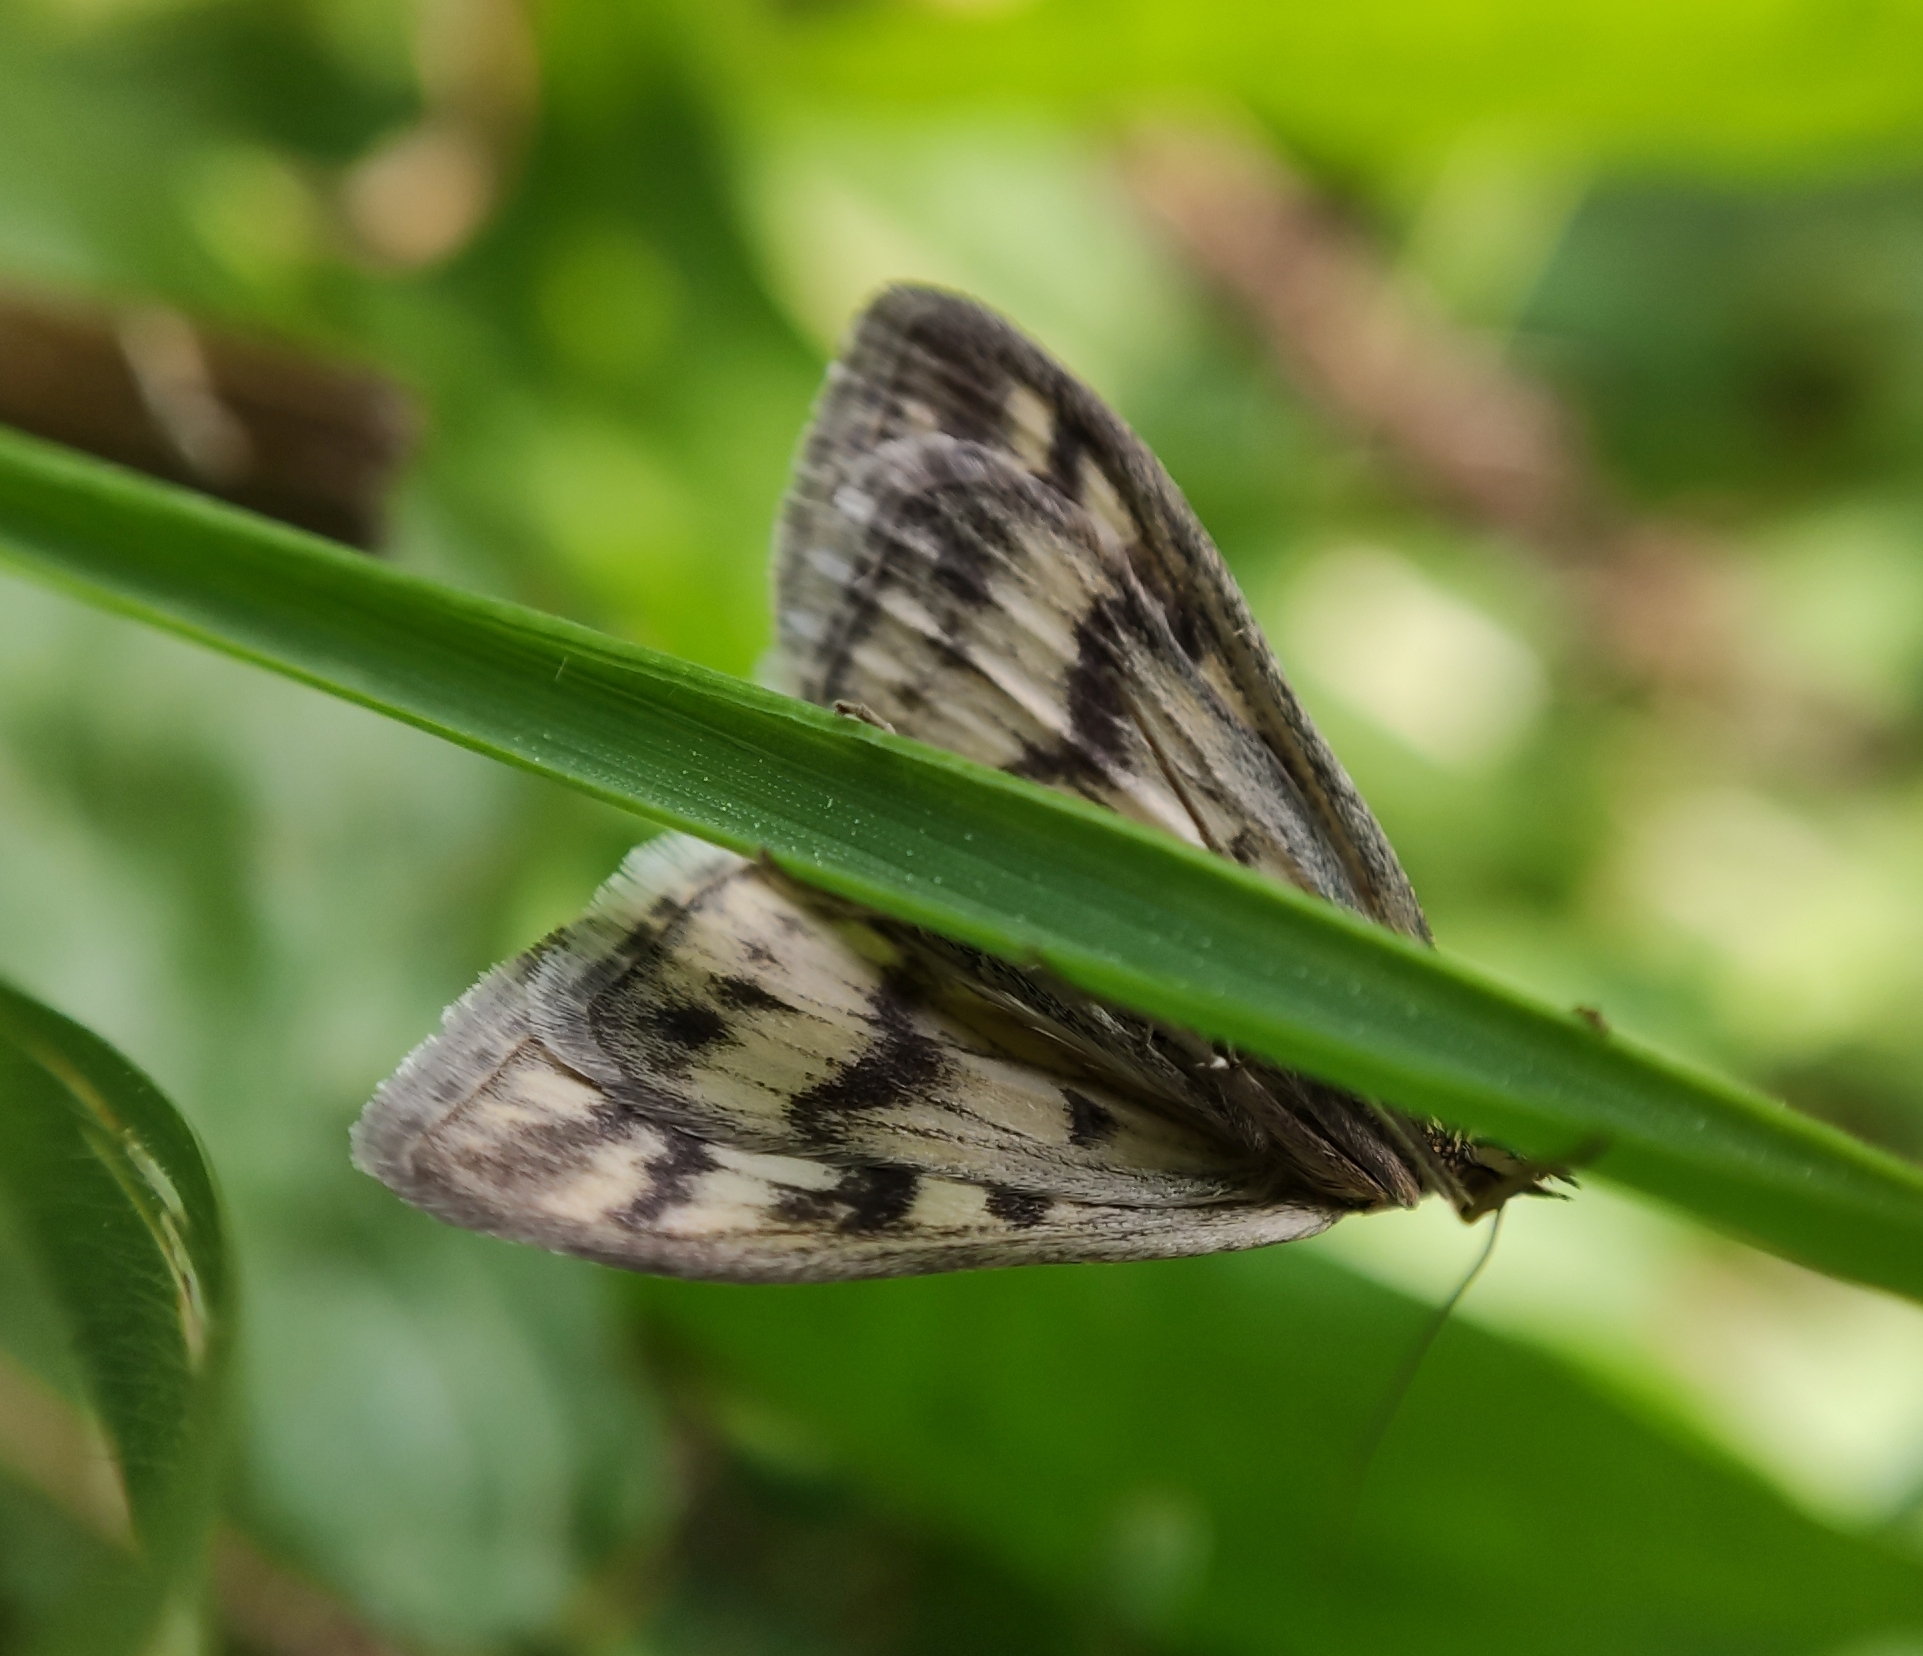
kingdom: Animalia
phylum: Arthropoda
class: Insecta
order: Lepidoptera
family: Crambidae
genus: Sitochroa
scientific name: Sitochroa verticalis
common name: Lesser pearl
